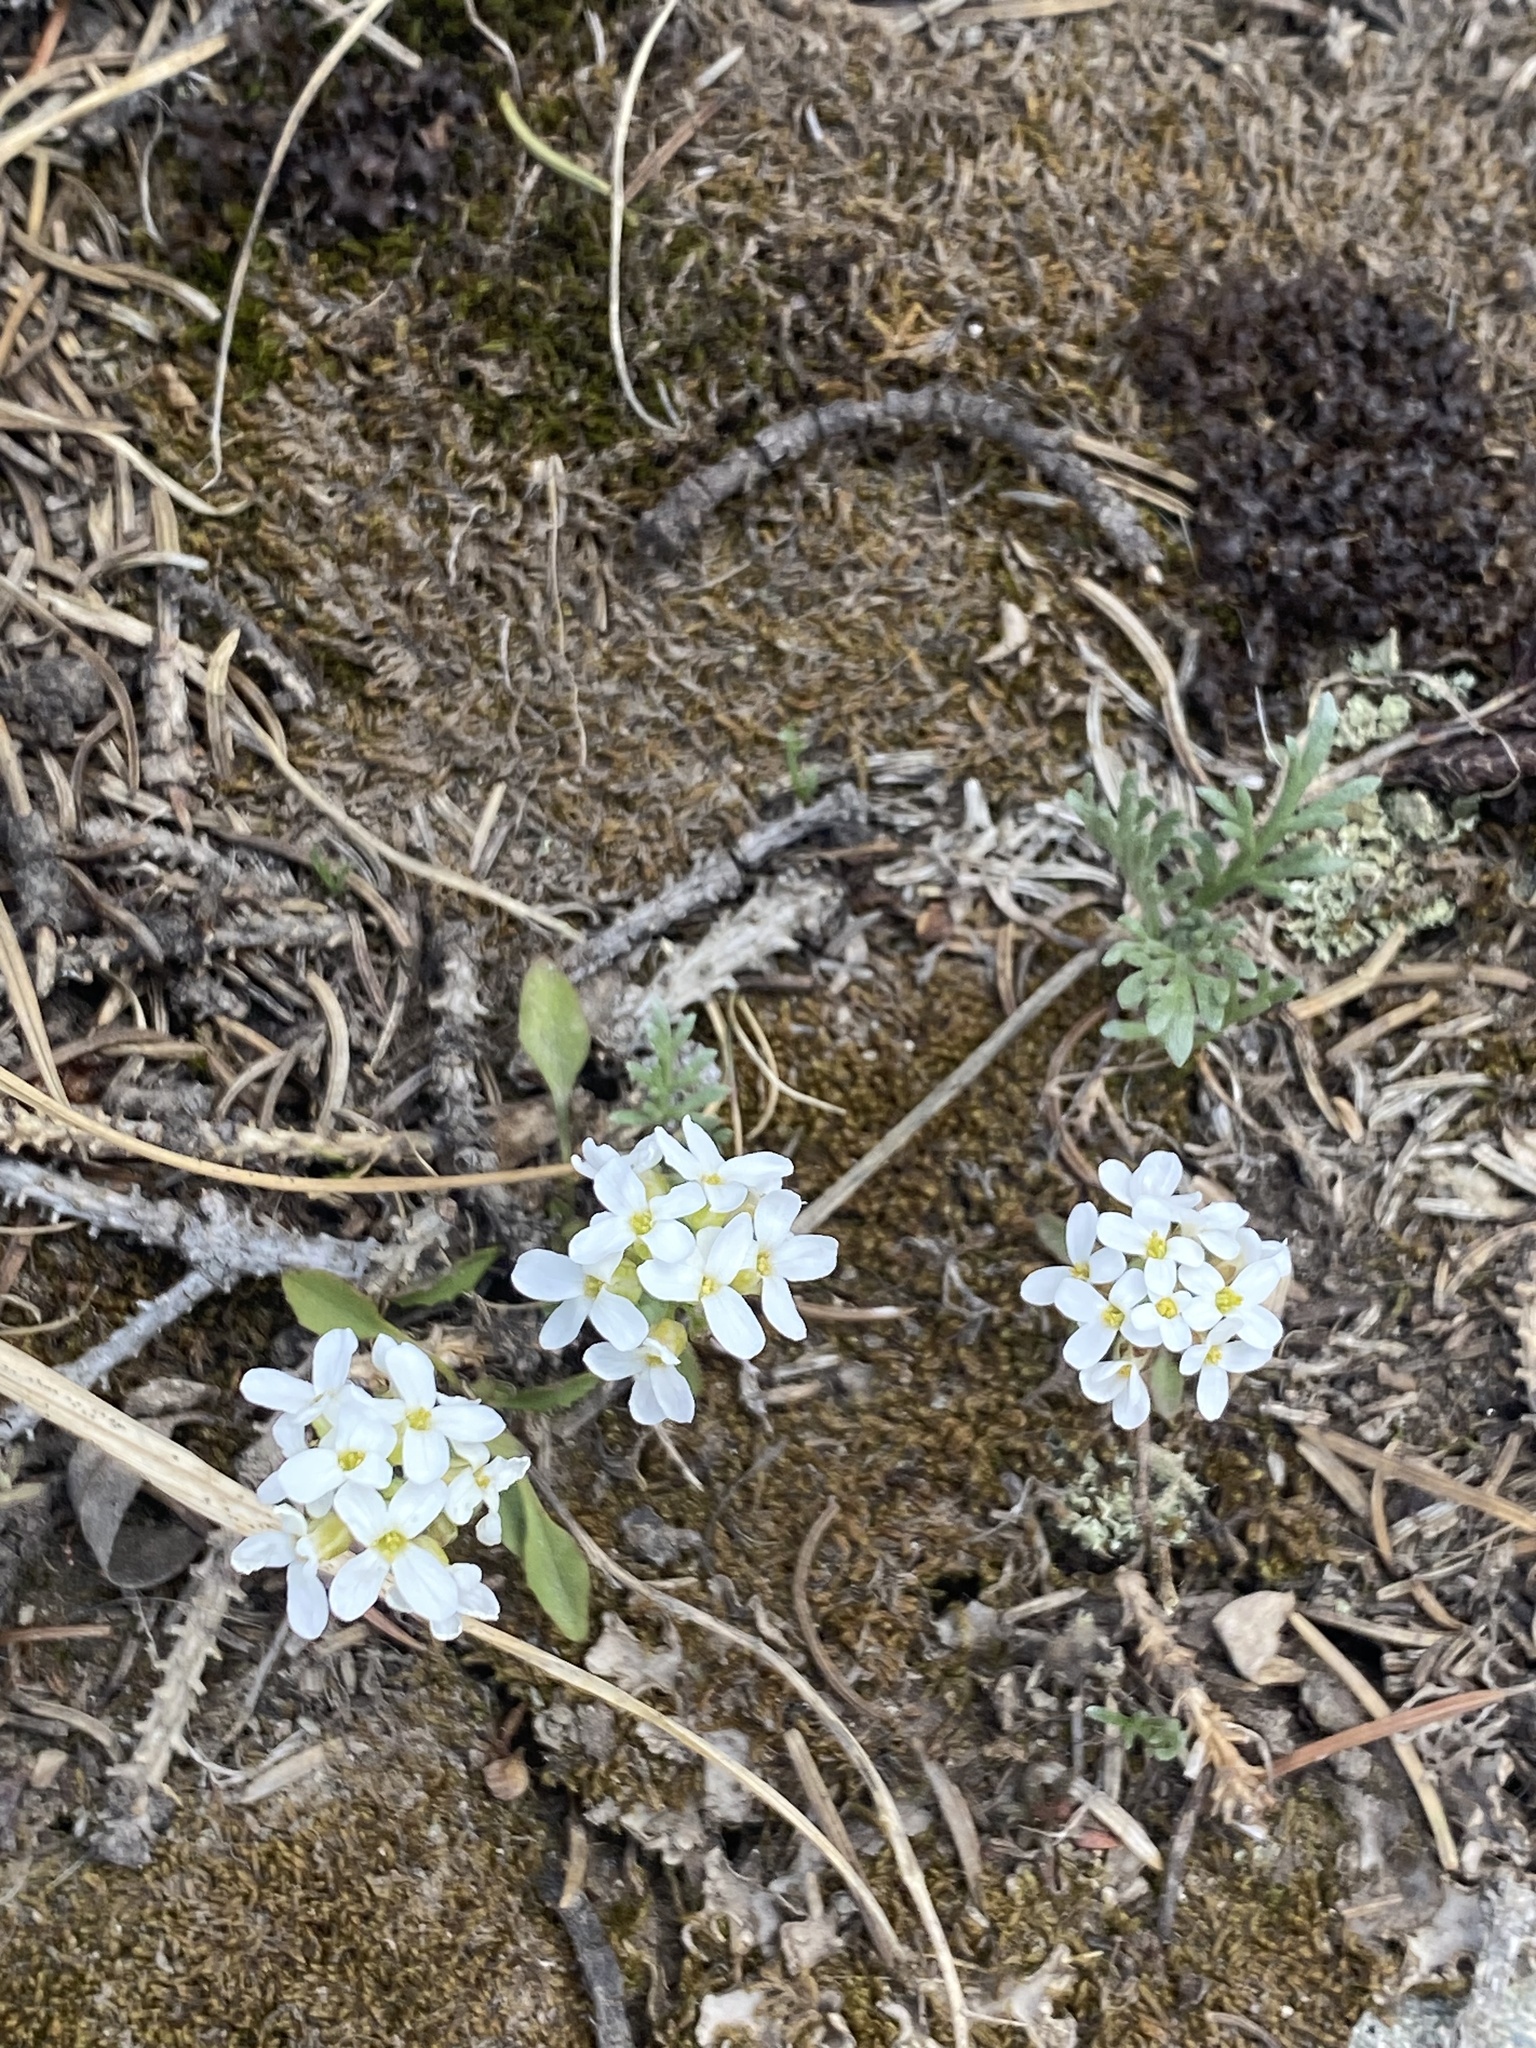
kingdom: Plantae
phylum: Tracheophyta
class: Magnoliopsida
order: Brassicales
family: Brassicaceae
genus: Noccaea
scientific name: Noccaea fendleri
